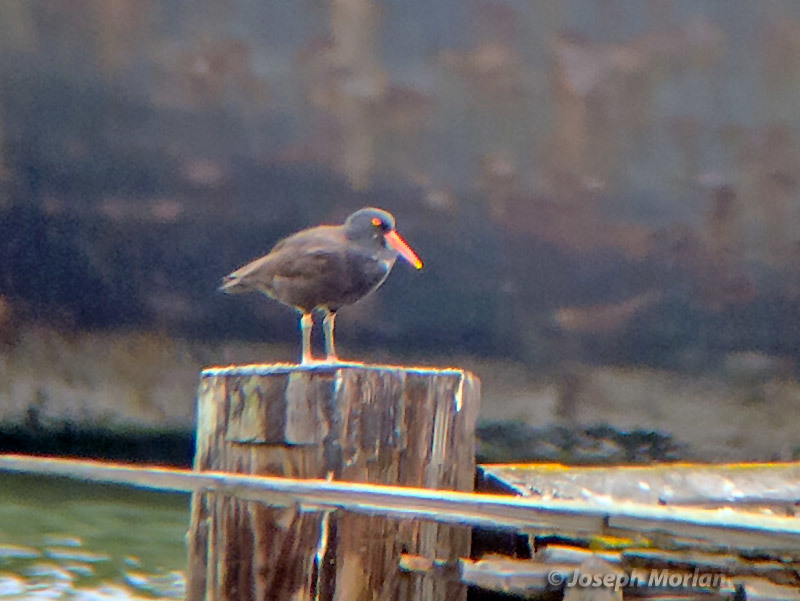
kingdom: Animalia
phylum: Chordata
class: Aves
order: Charadriiformes
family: Haematopodidae
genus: Haematopus
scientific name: Haematopus bachmani
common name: Black oystercatcher
